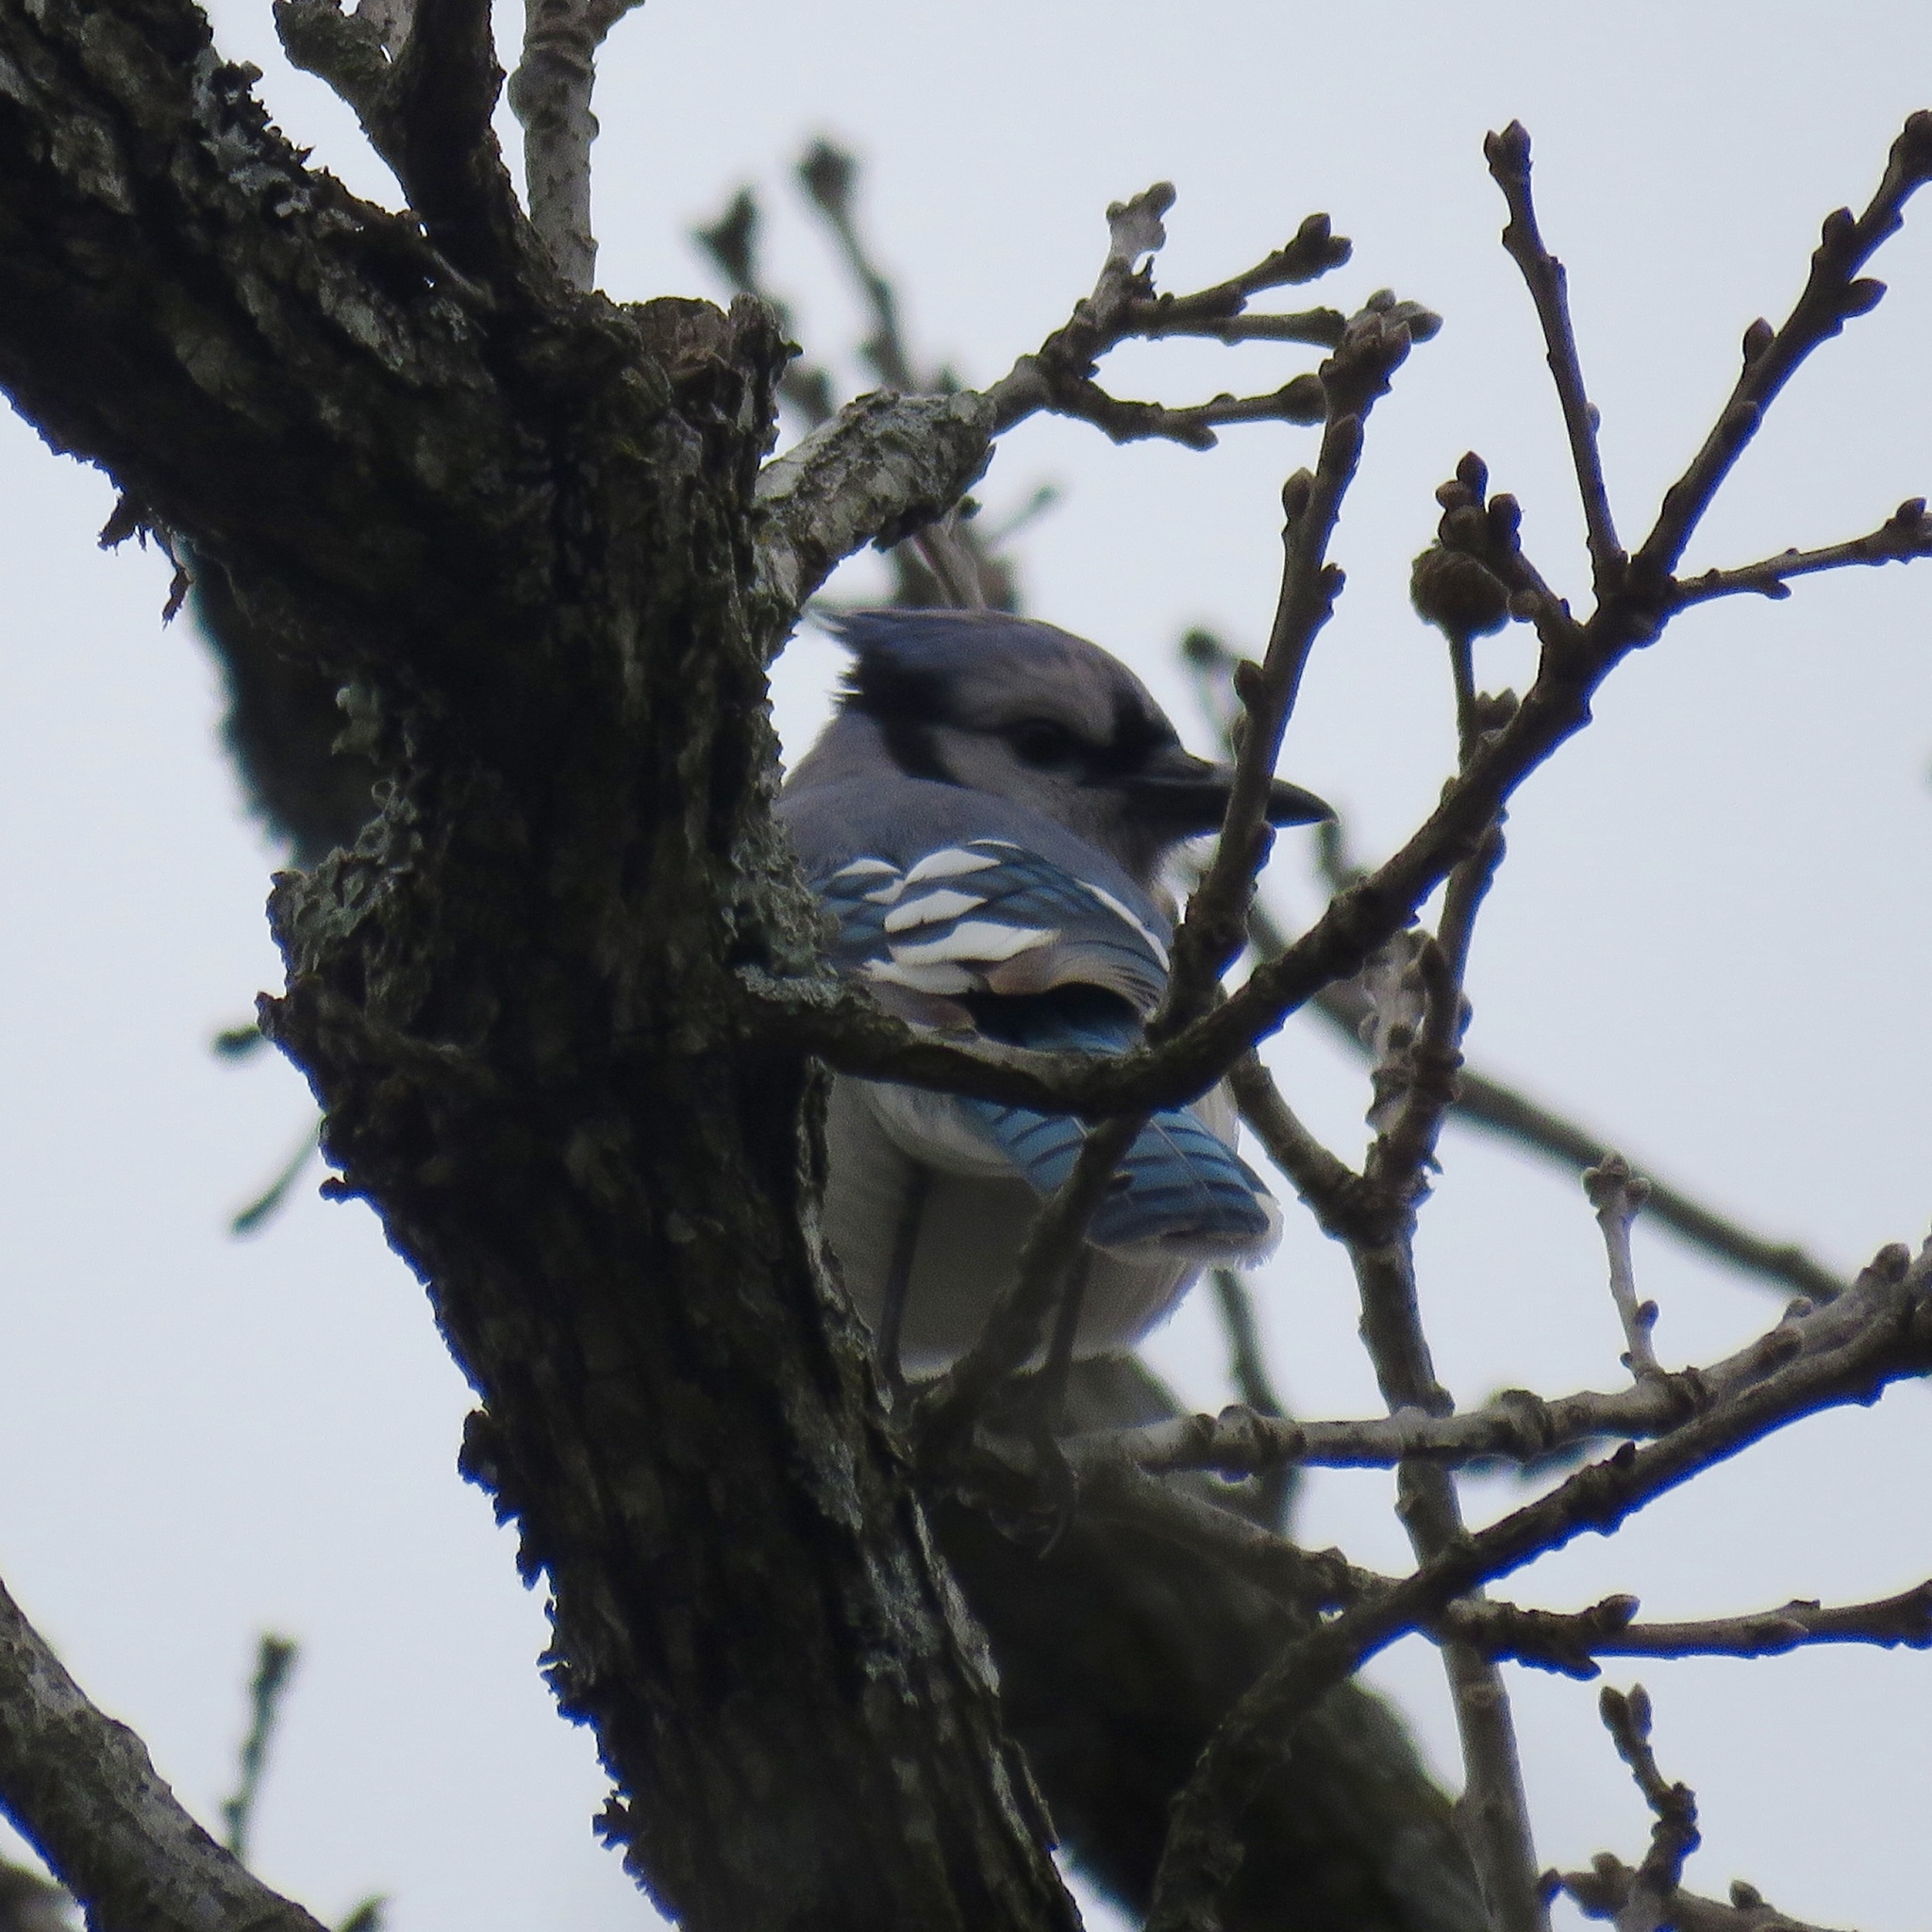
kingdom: Animalia
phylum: Chordata
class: Aves
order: Passeriformes
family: Corvidae
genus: Cyanocitta
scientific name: Cyanocitta cristata
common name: Blue jay
